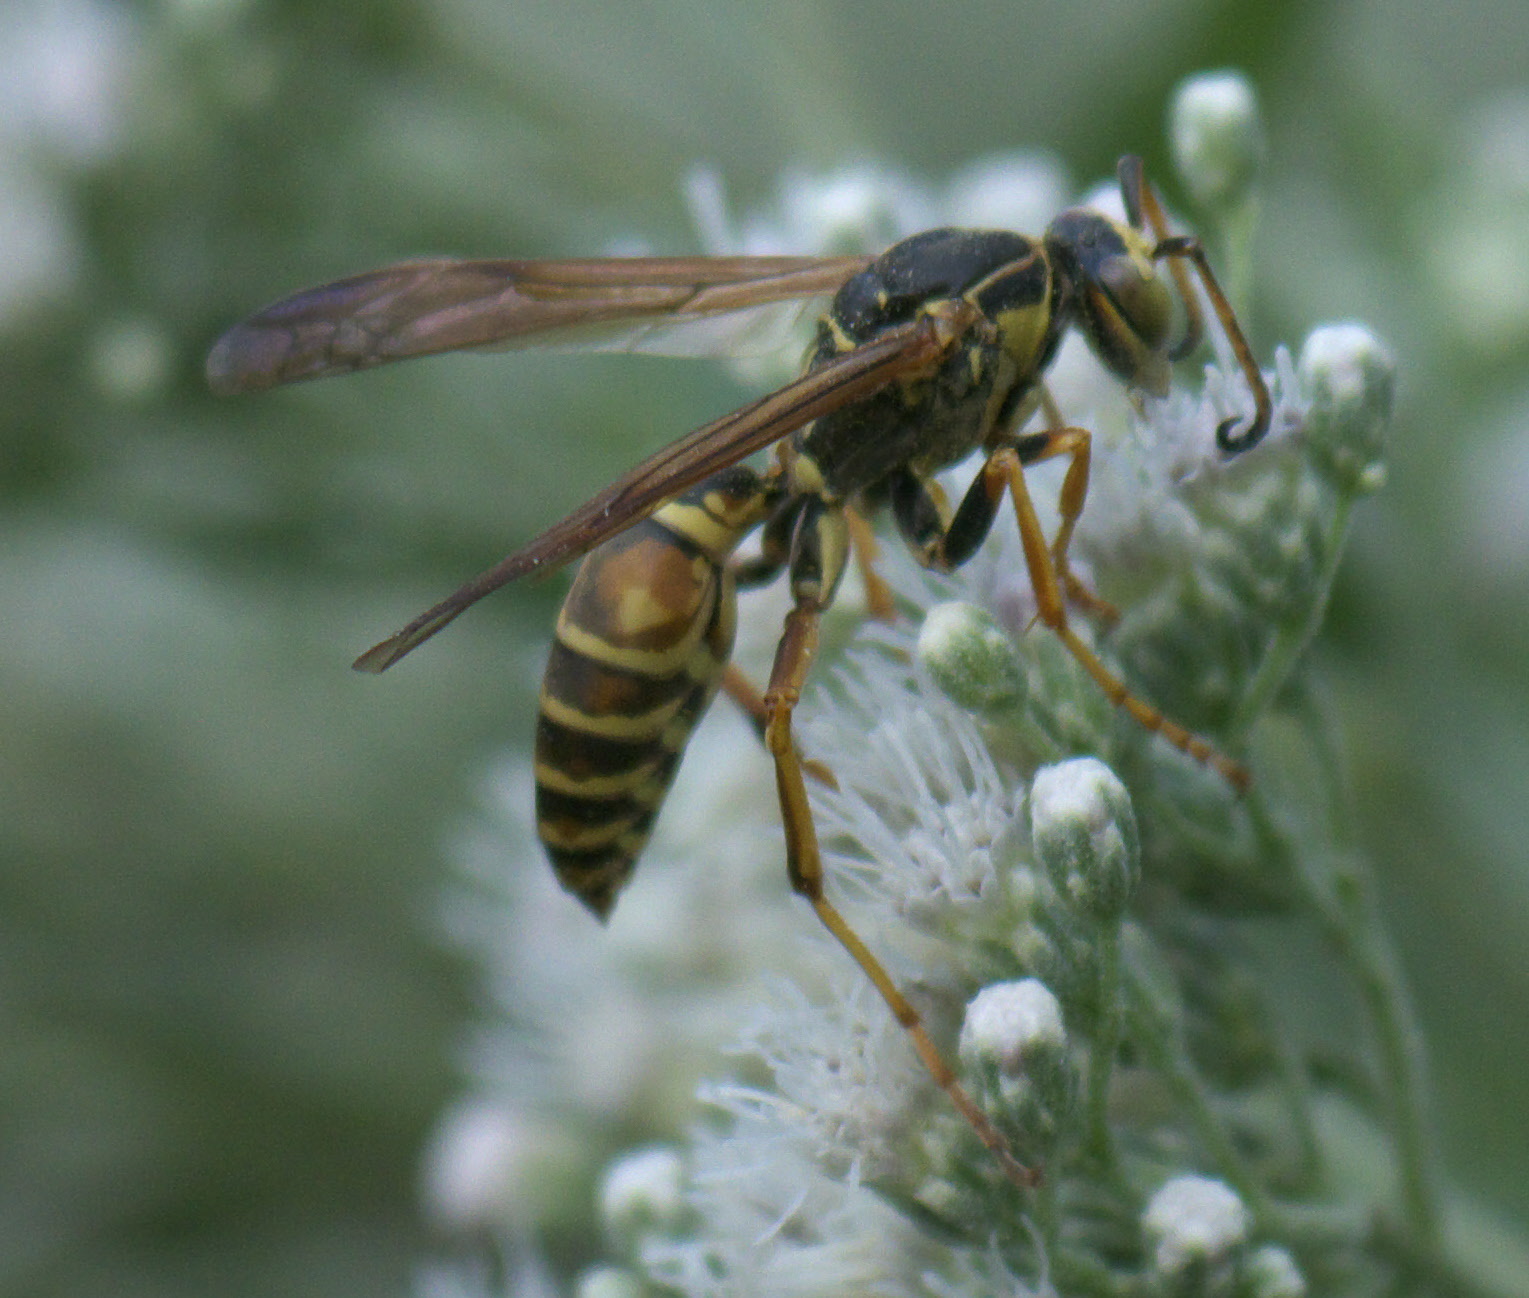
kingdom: Animalia
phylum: Arthropoda
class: Insecta
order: Hymenoptera
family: Eumenidae
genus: Polistes
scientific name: Polistes fuscatus
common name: Dark paper wasp
